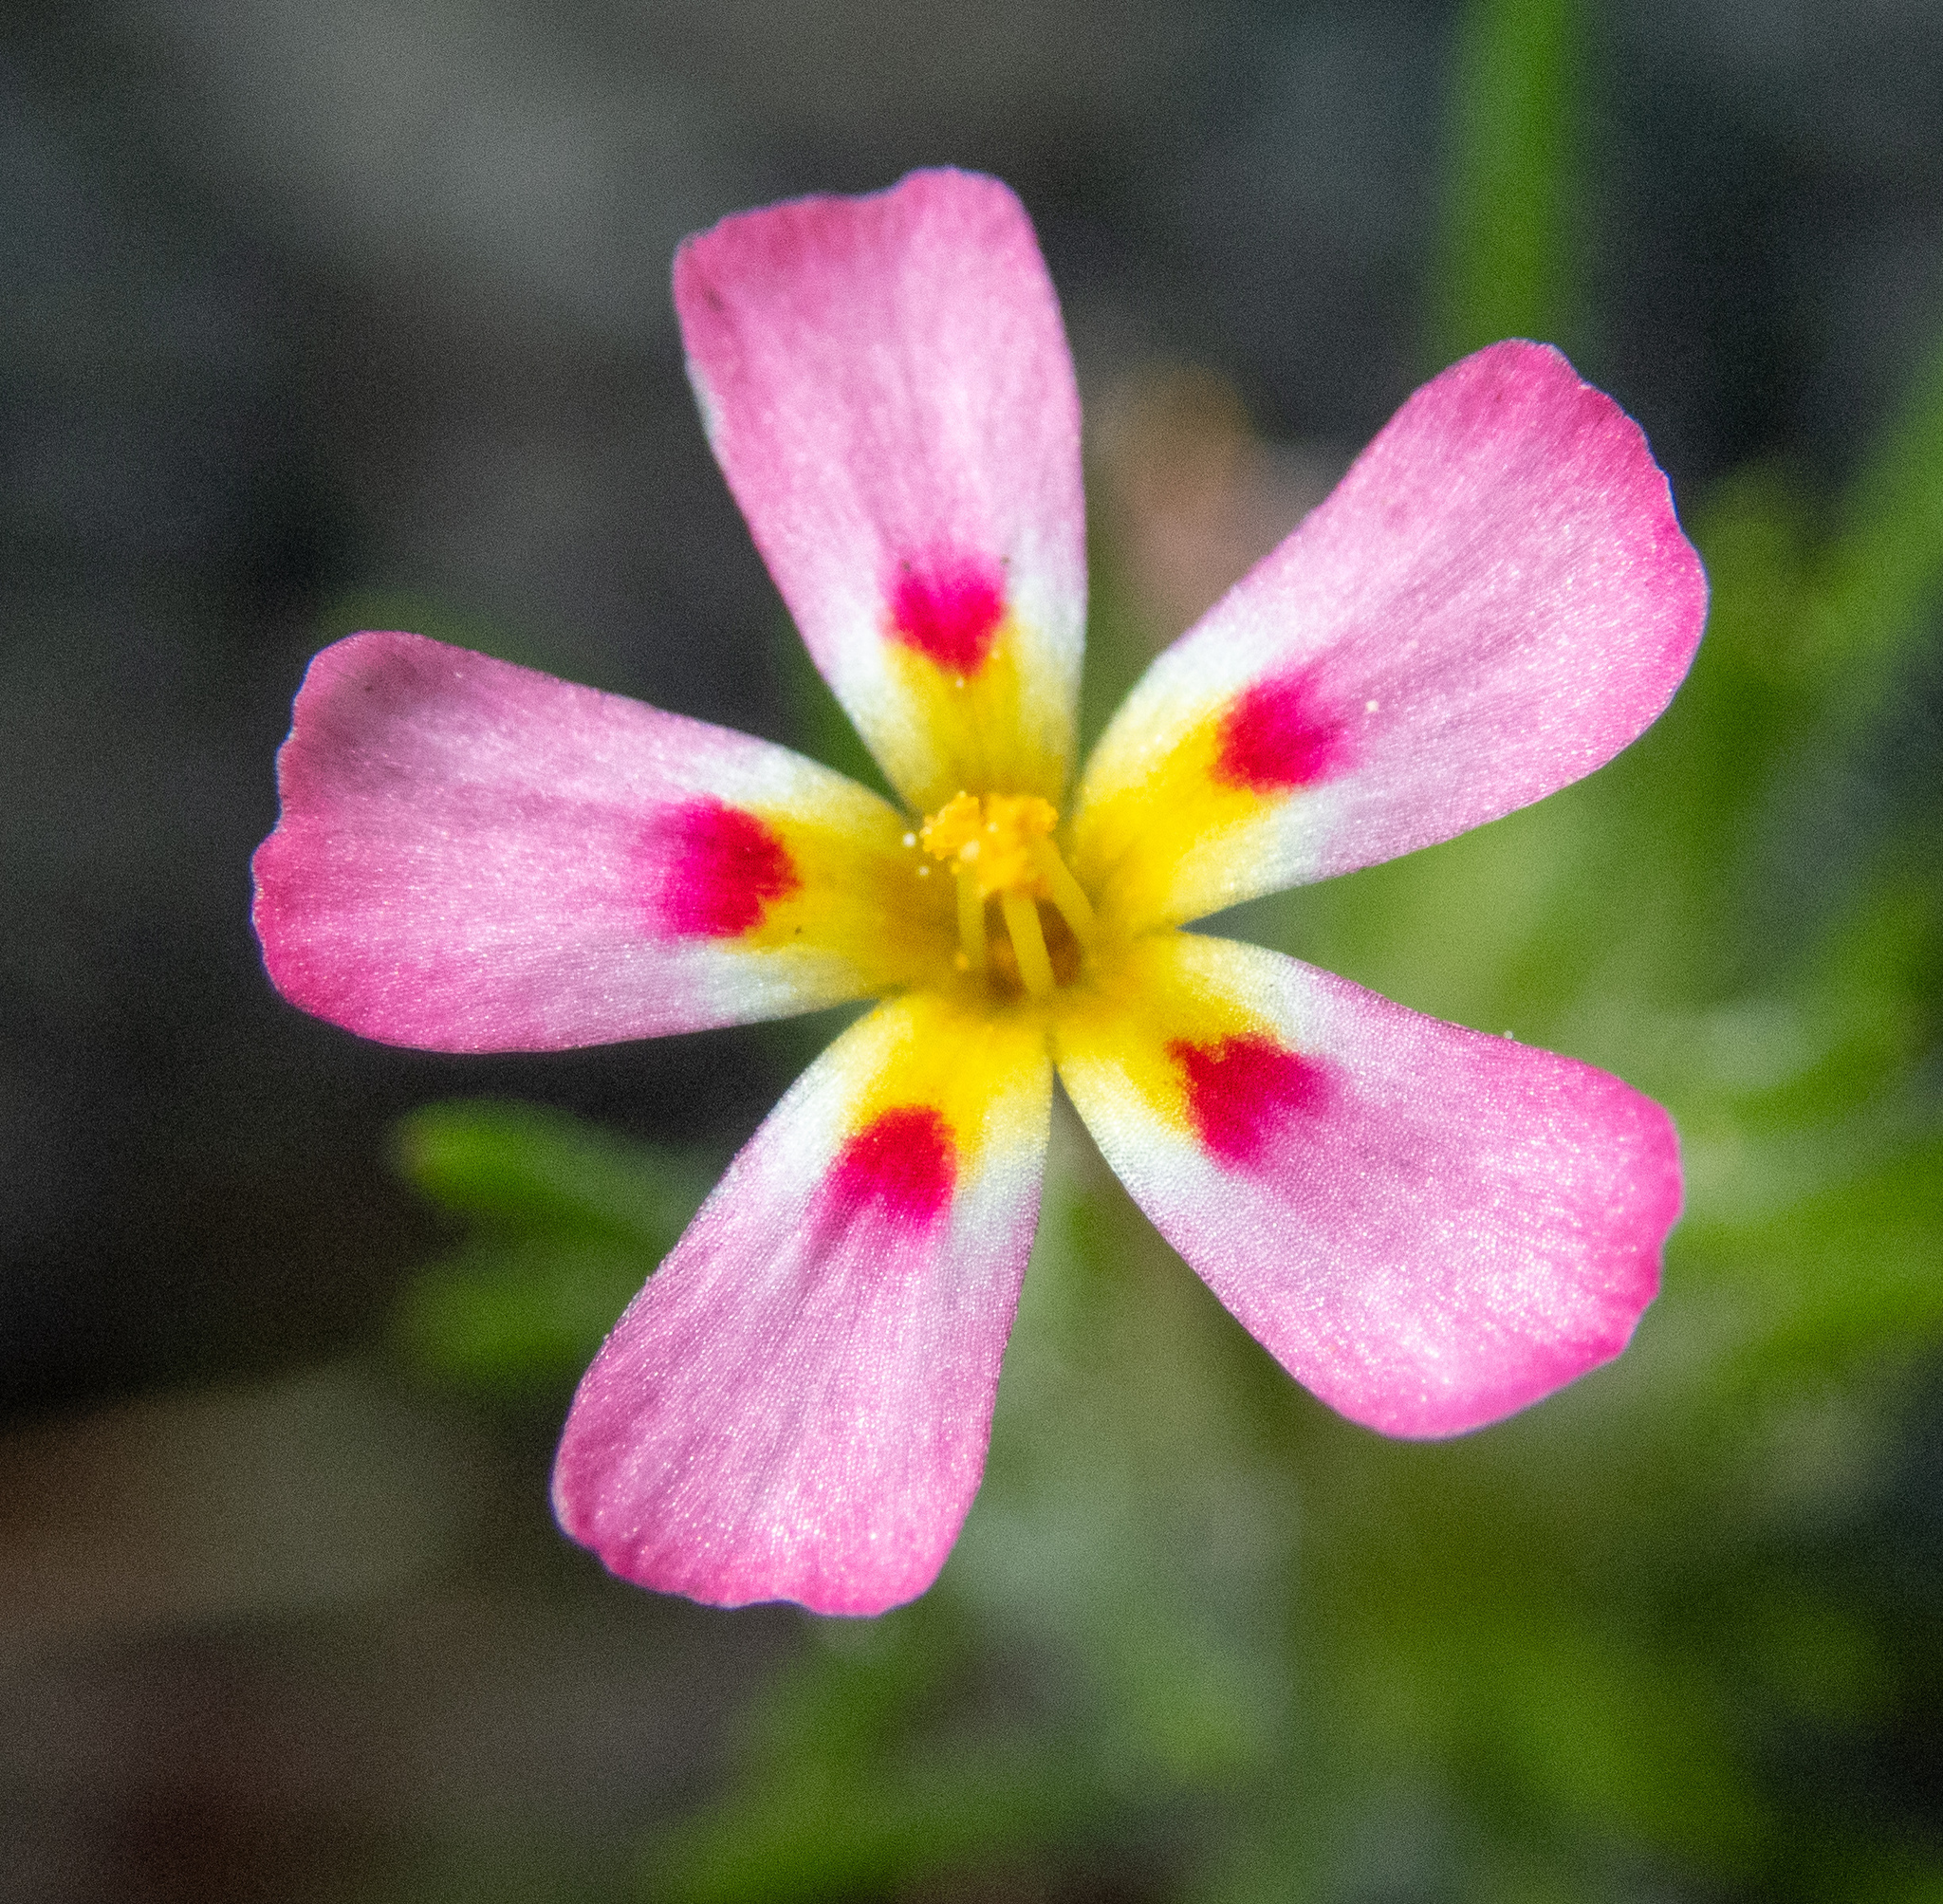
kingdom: Plantae
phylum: Tracheophyta
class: Magnoliopsida
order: Ericales
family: Polemoniaceae
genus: Leptosiphon
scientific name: Leptosiphon ciliatus
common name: Whiskerbrush
